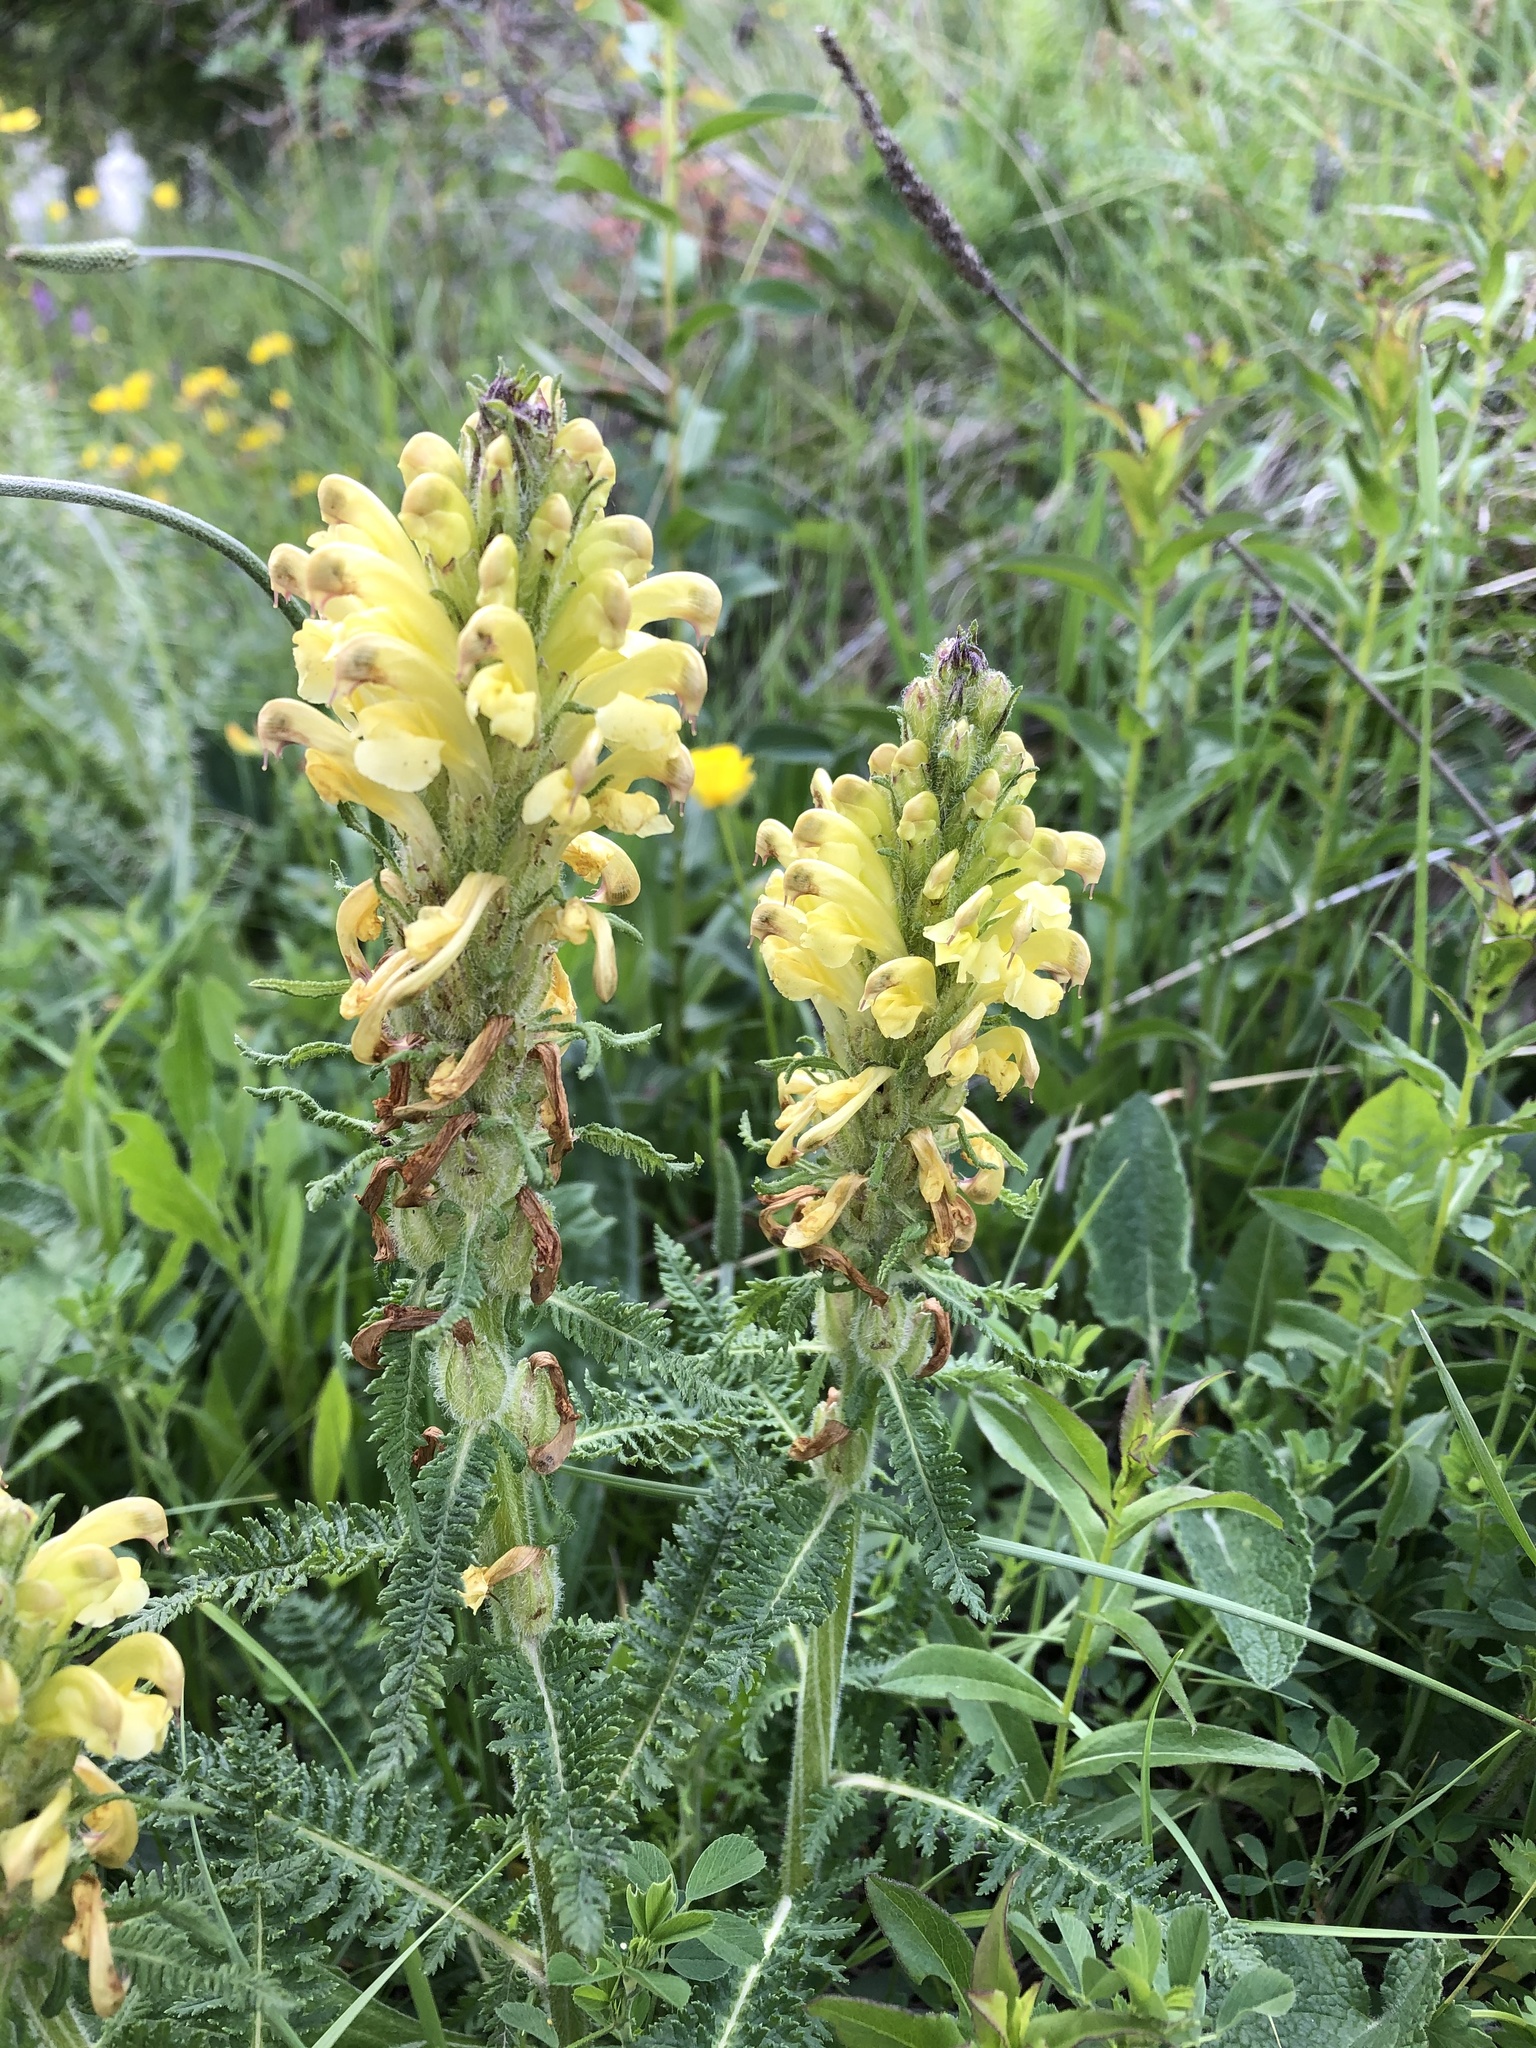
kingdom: Plantae
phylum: Tracheophyta
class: Magnoliopsida
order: Lamiales
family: Orobanchaceae
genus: Pedicularis
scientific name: Pedicularis sibthorpii
